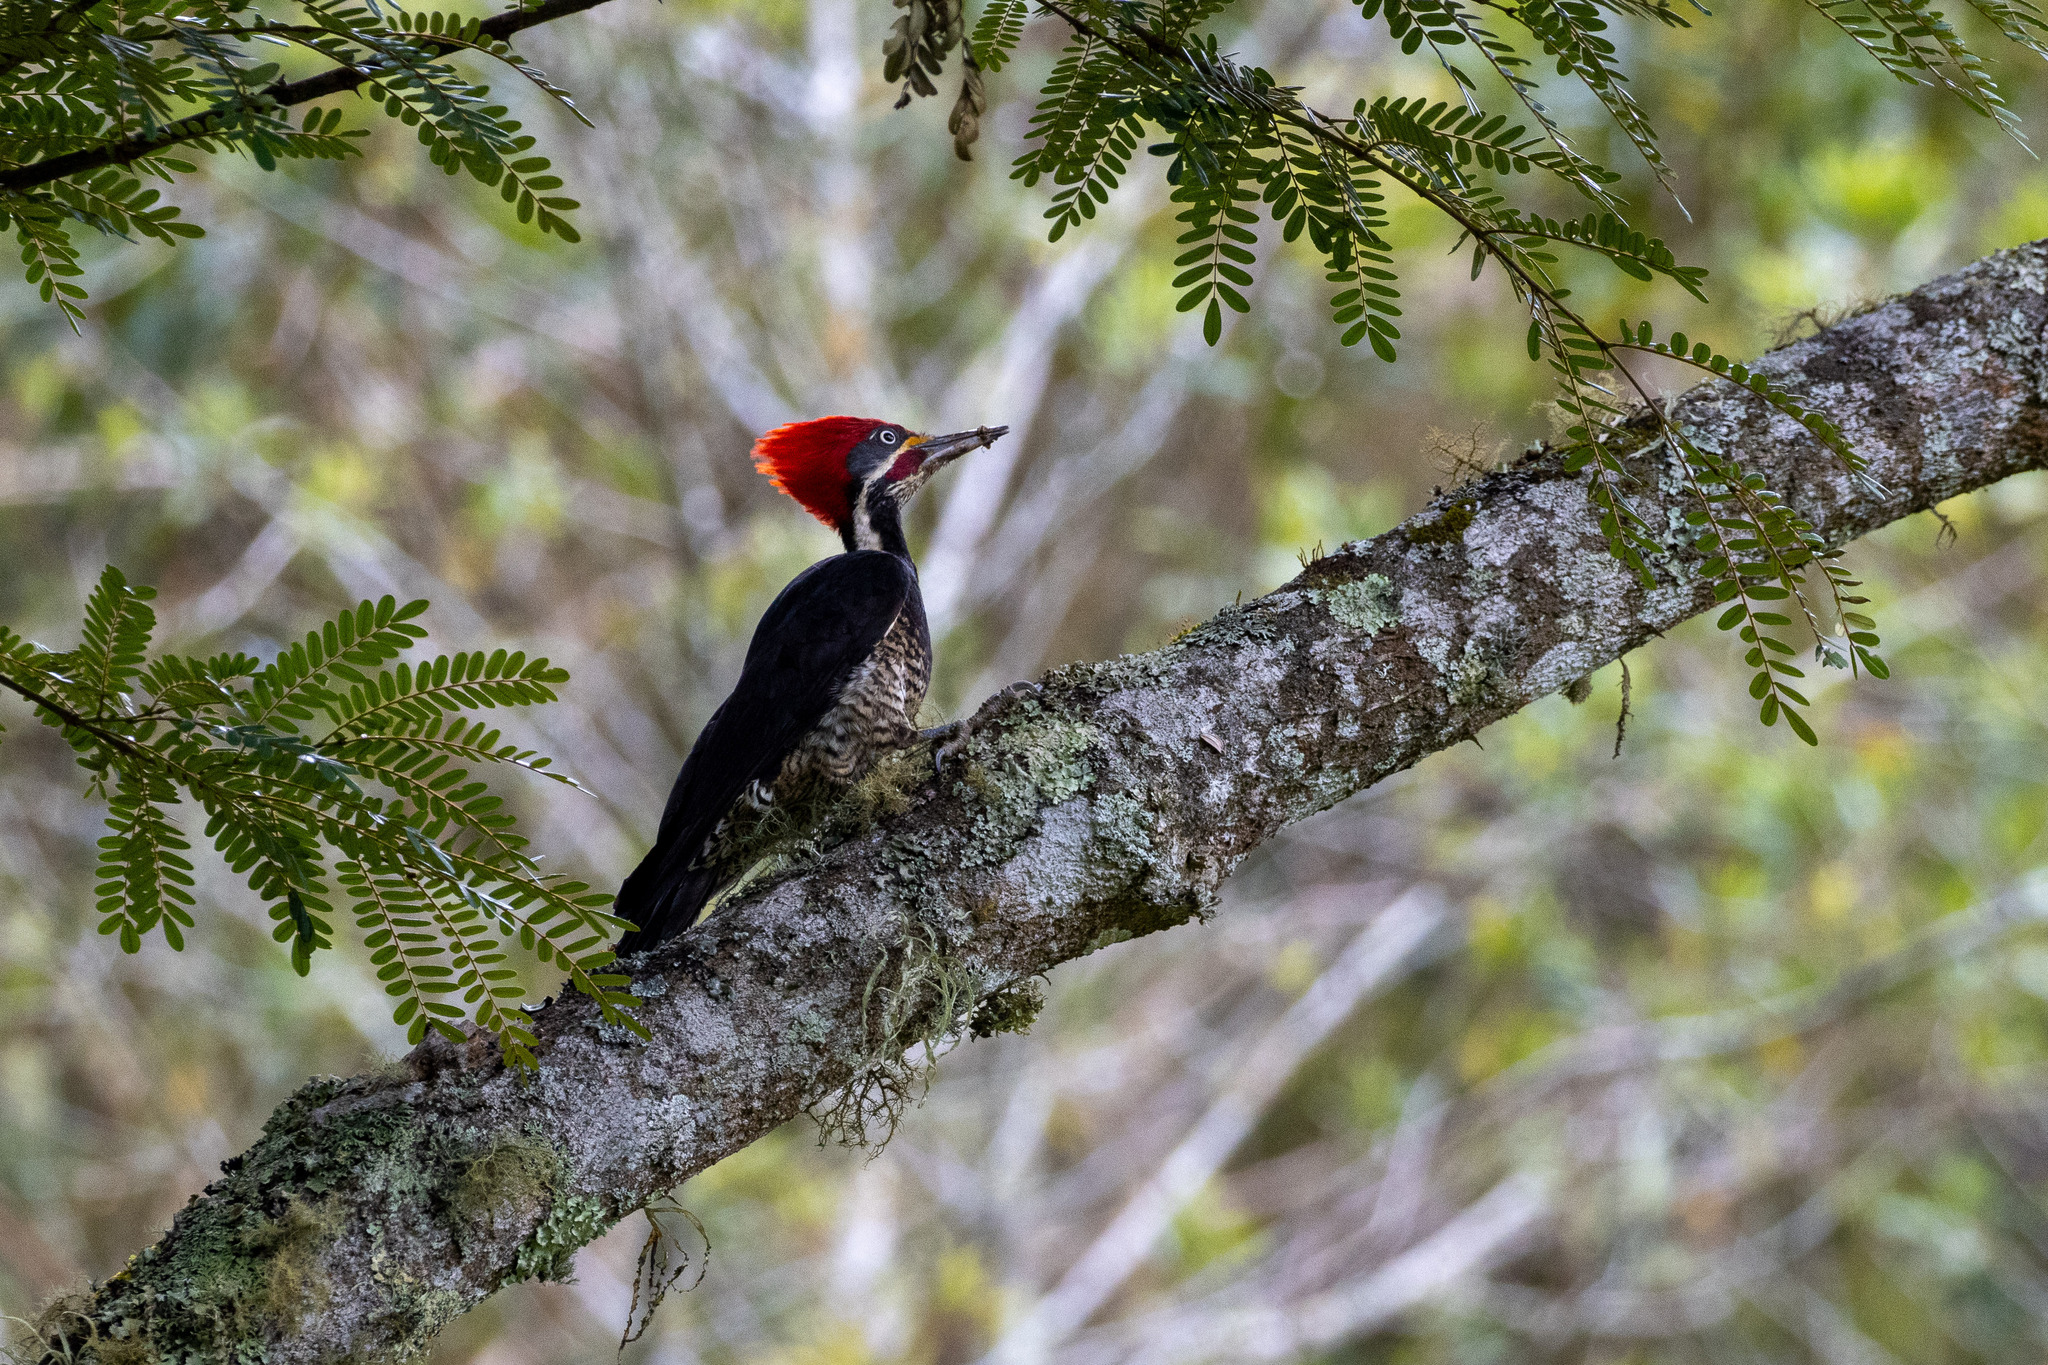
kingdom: Animalia
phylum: Chordata
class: Aves
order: Piciformes
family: Picidae
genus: Dryocopus
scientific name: Dryocopus lineatus
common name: Lineated woodpecker
